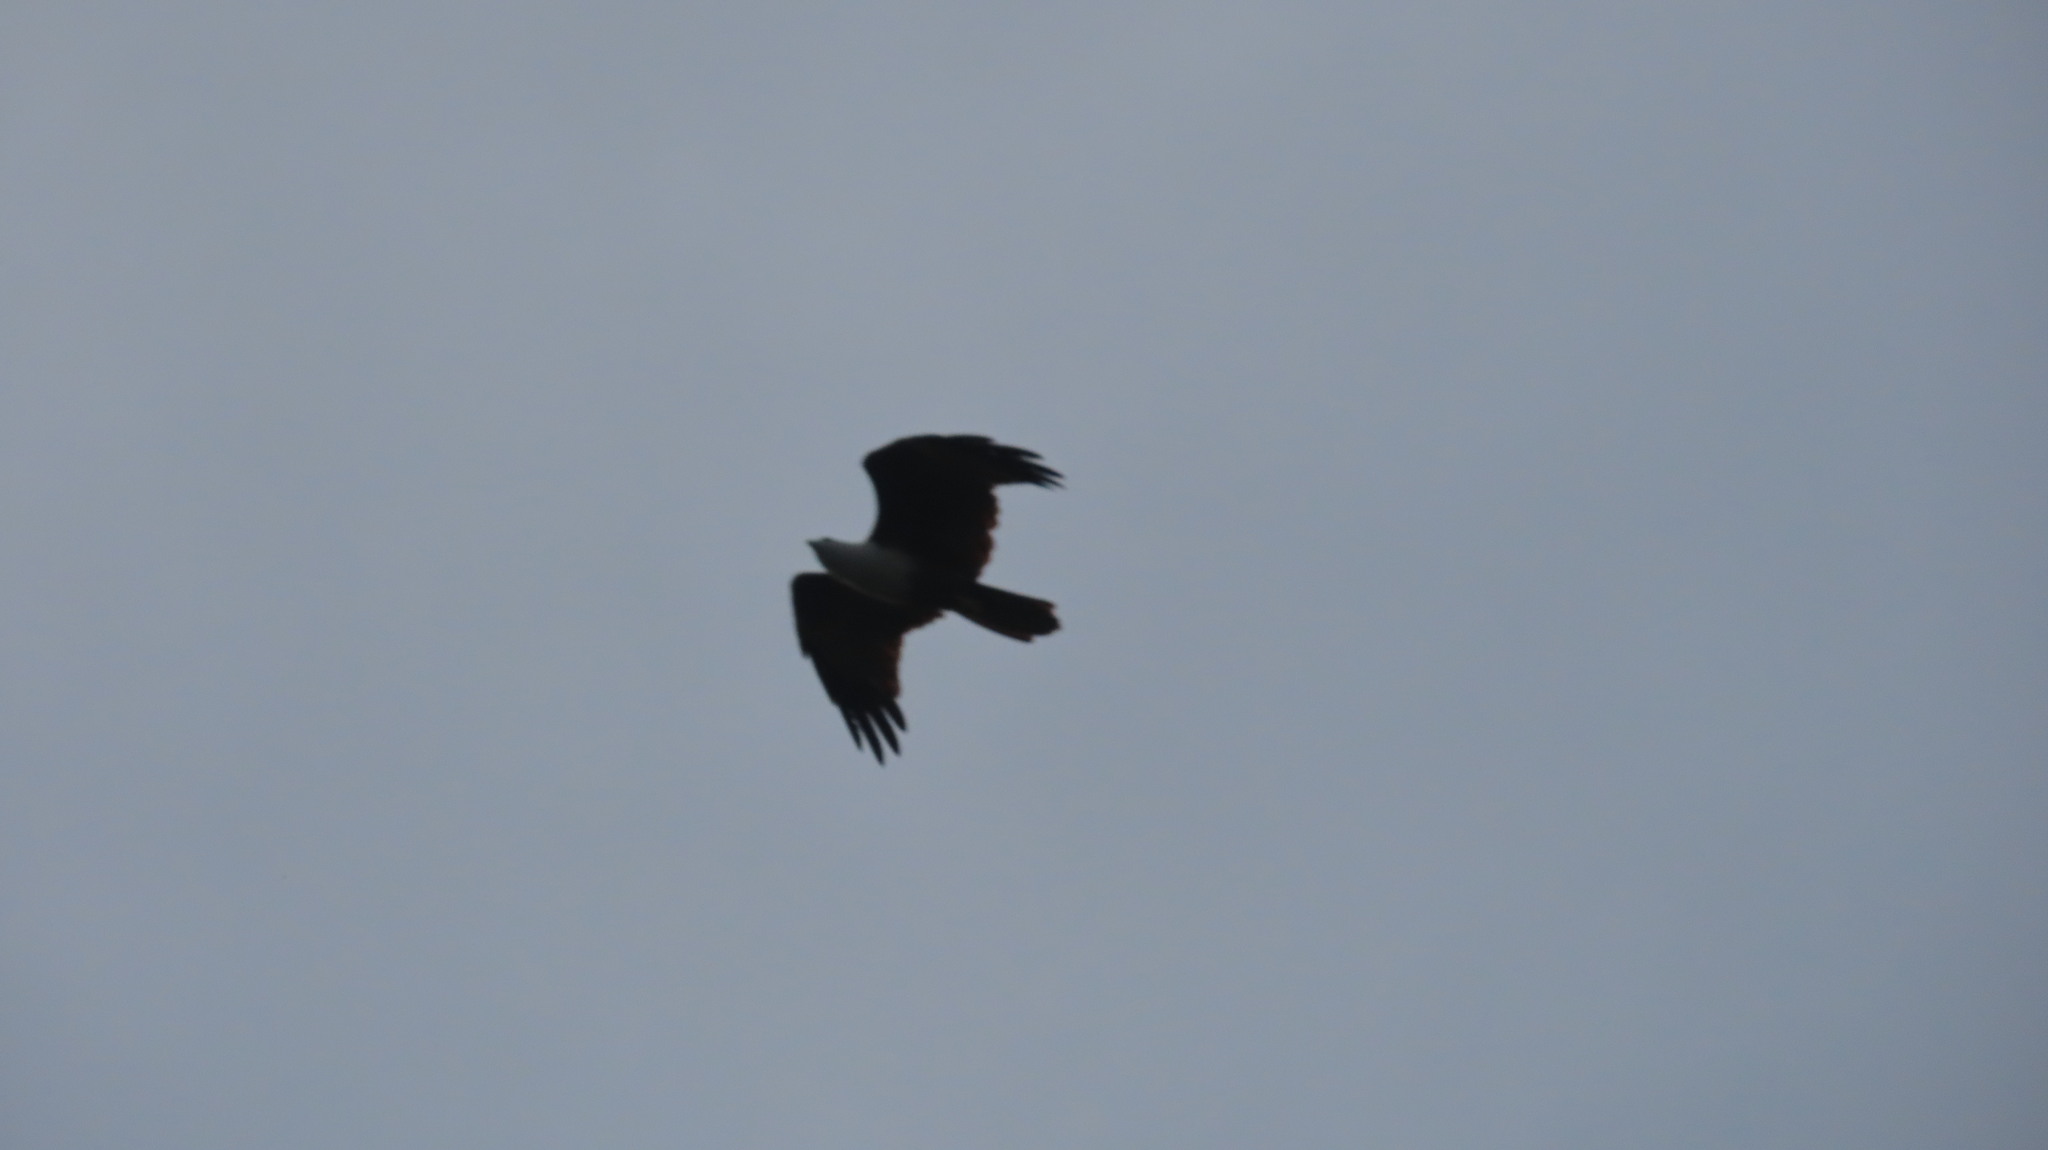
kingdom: Animalia
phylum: Chordata
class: Aves
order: Accipitriformes
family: Accipitridae
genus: Haliastur
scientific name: Haliastur indus
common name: Brahminy kite
